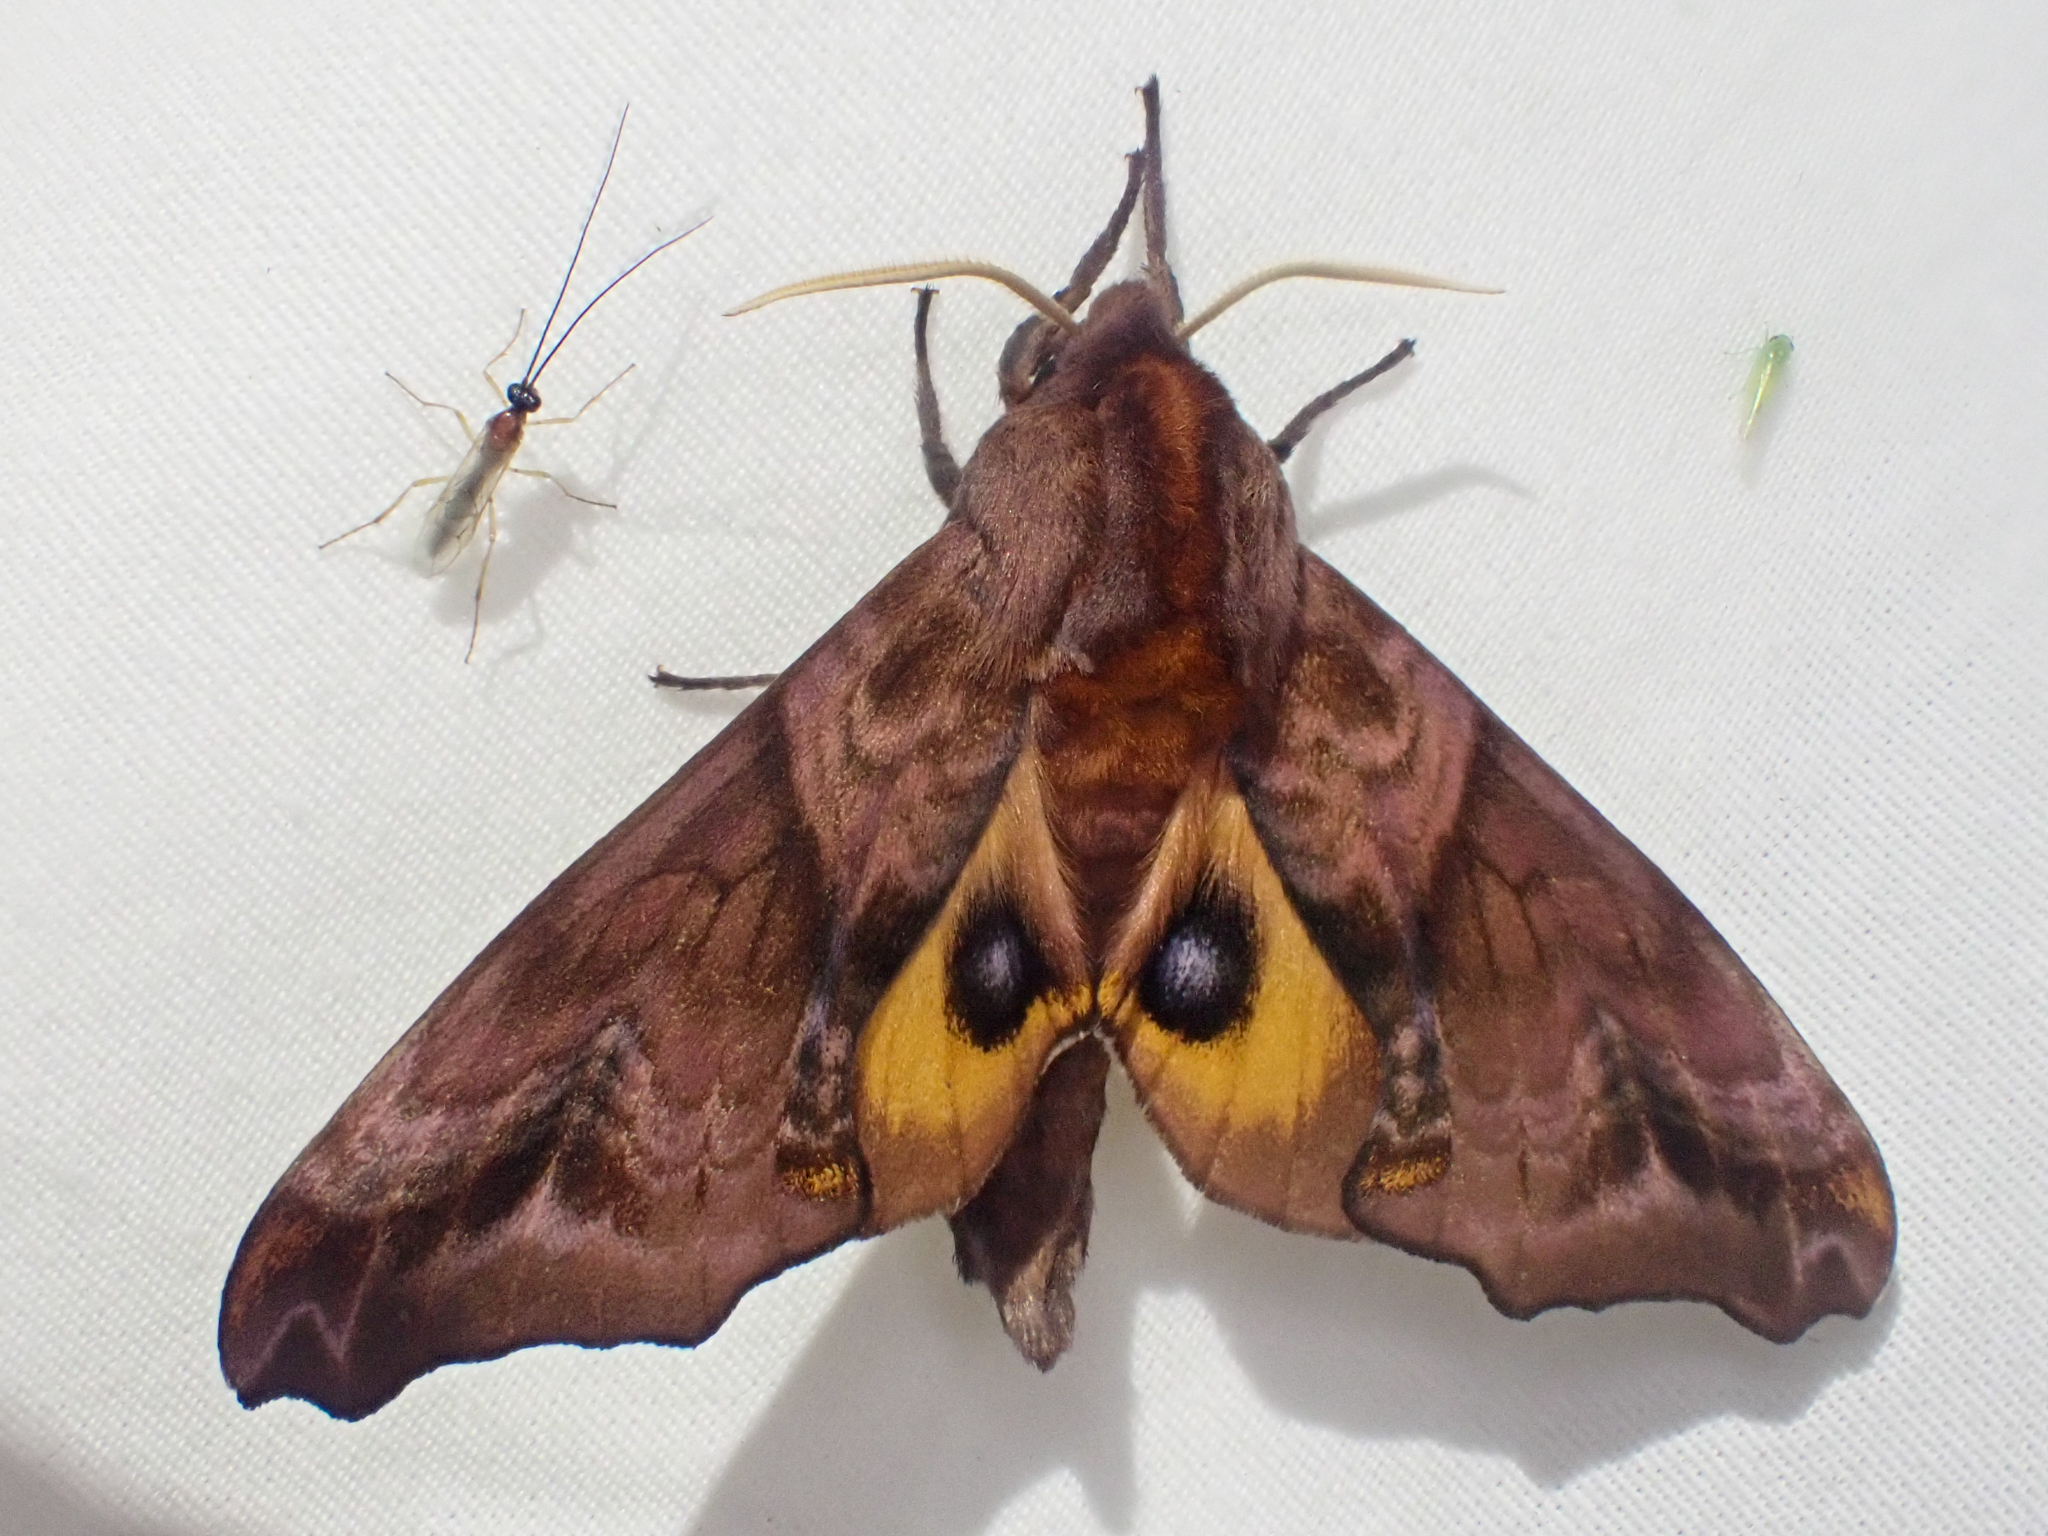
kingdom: Animalia
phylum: Arthropoda
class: Insecta
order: Lepidoptera
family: Sphingidae
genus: Paonias
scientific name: Paonias myops
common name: Small-eyed sphinx
